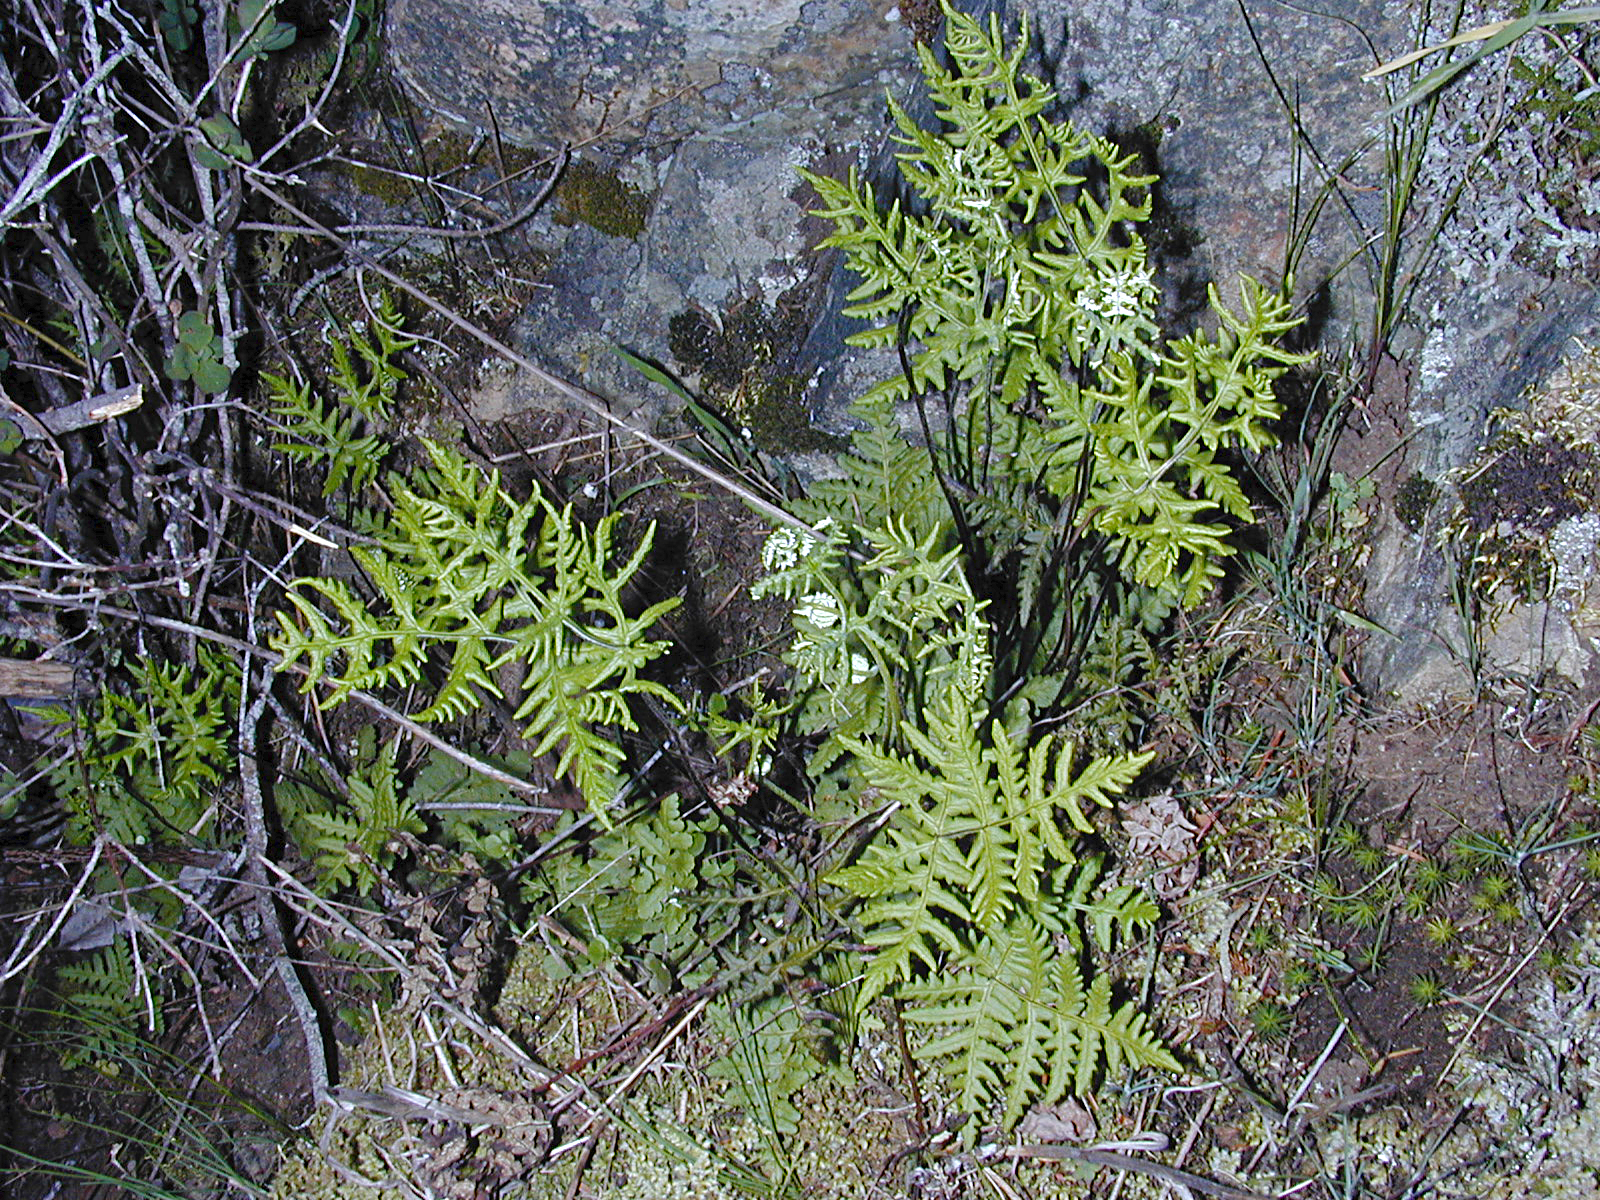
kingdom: Plantae
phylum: Tracheophyta
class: Polypodiopsida
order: Polypodiales
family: Pteridaceae
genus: Pentagramma
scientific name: Pentagramma triangularis
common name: Gold fern
